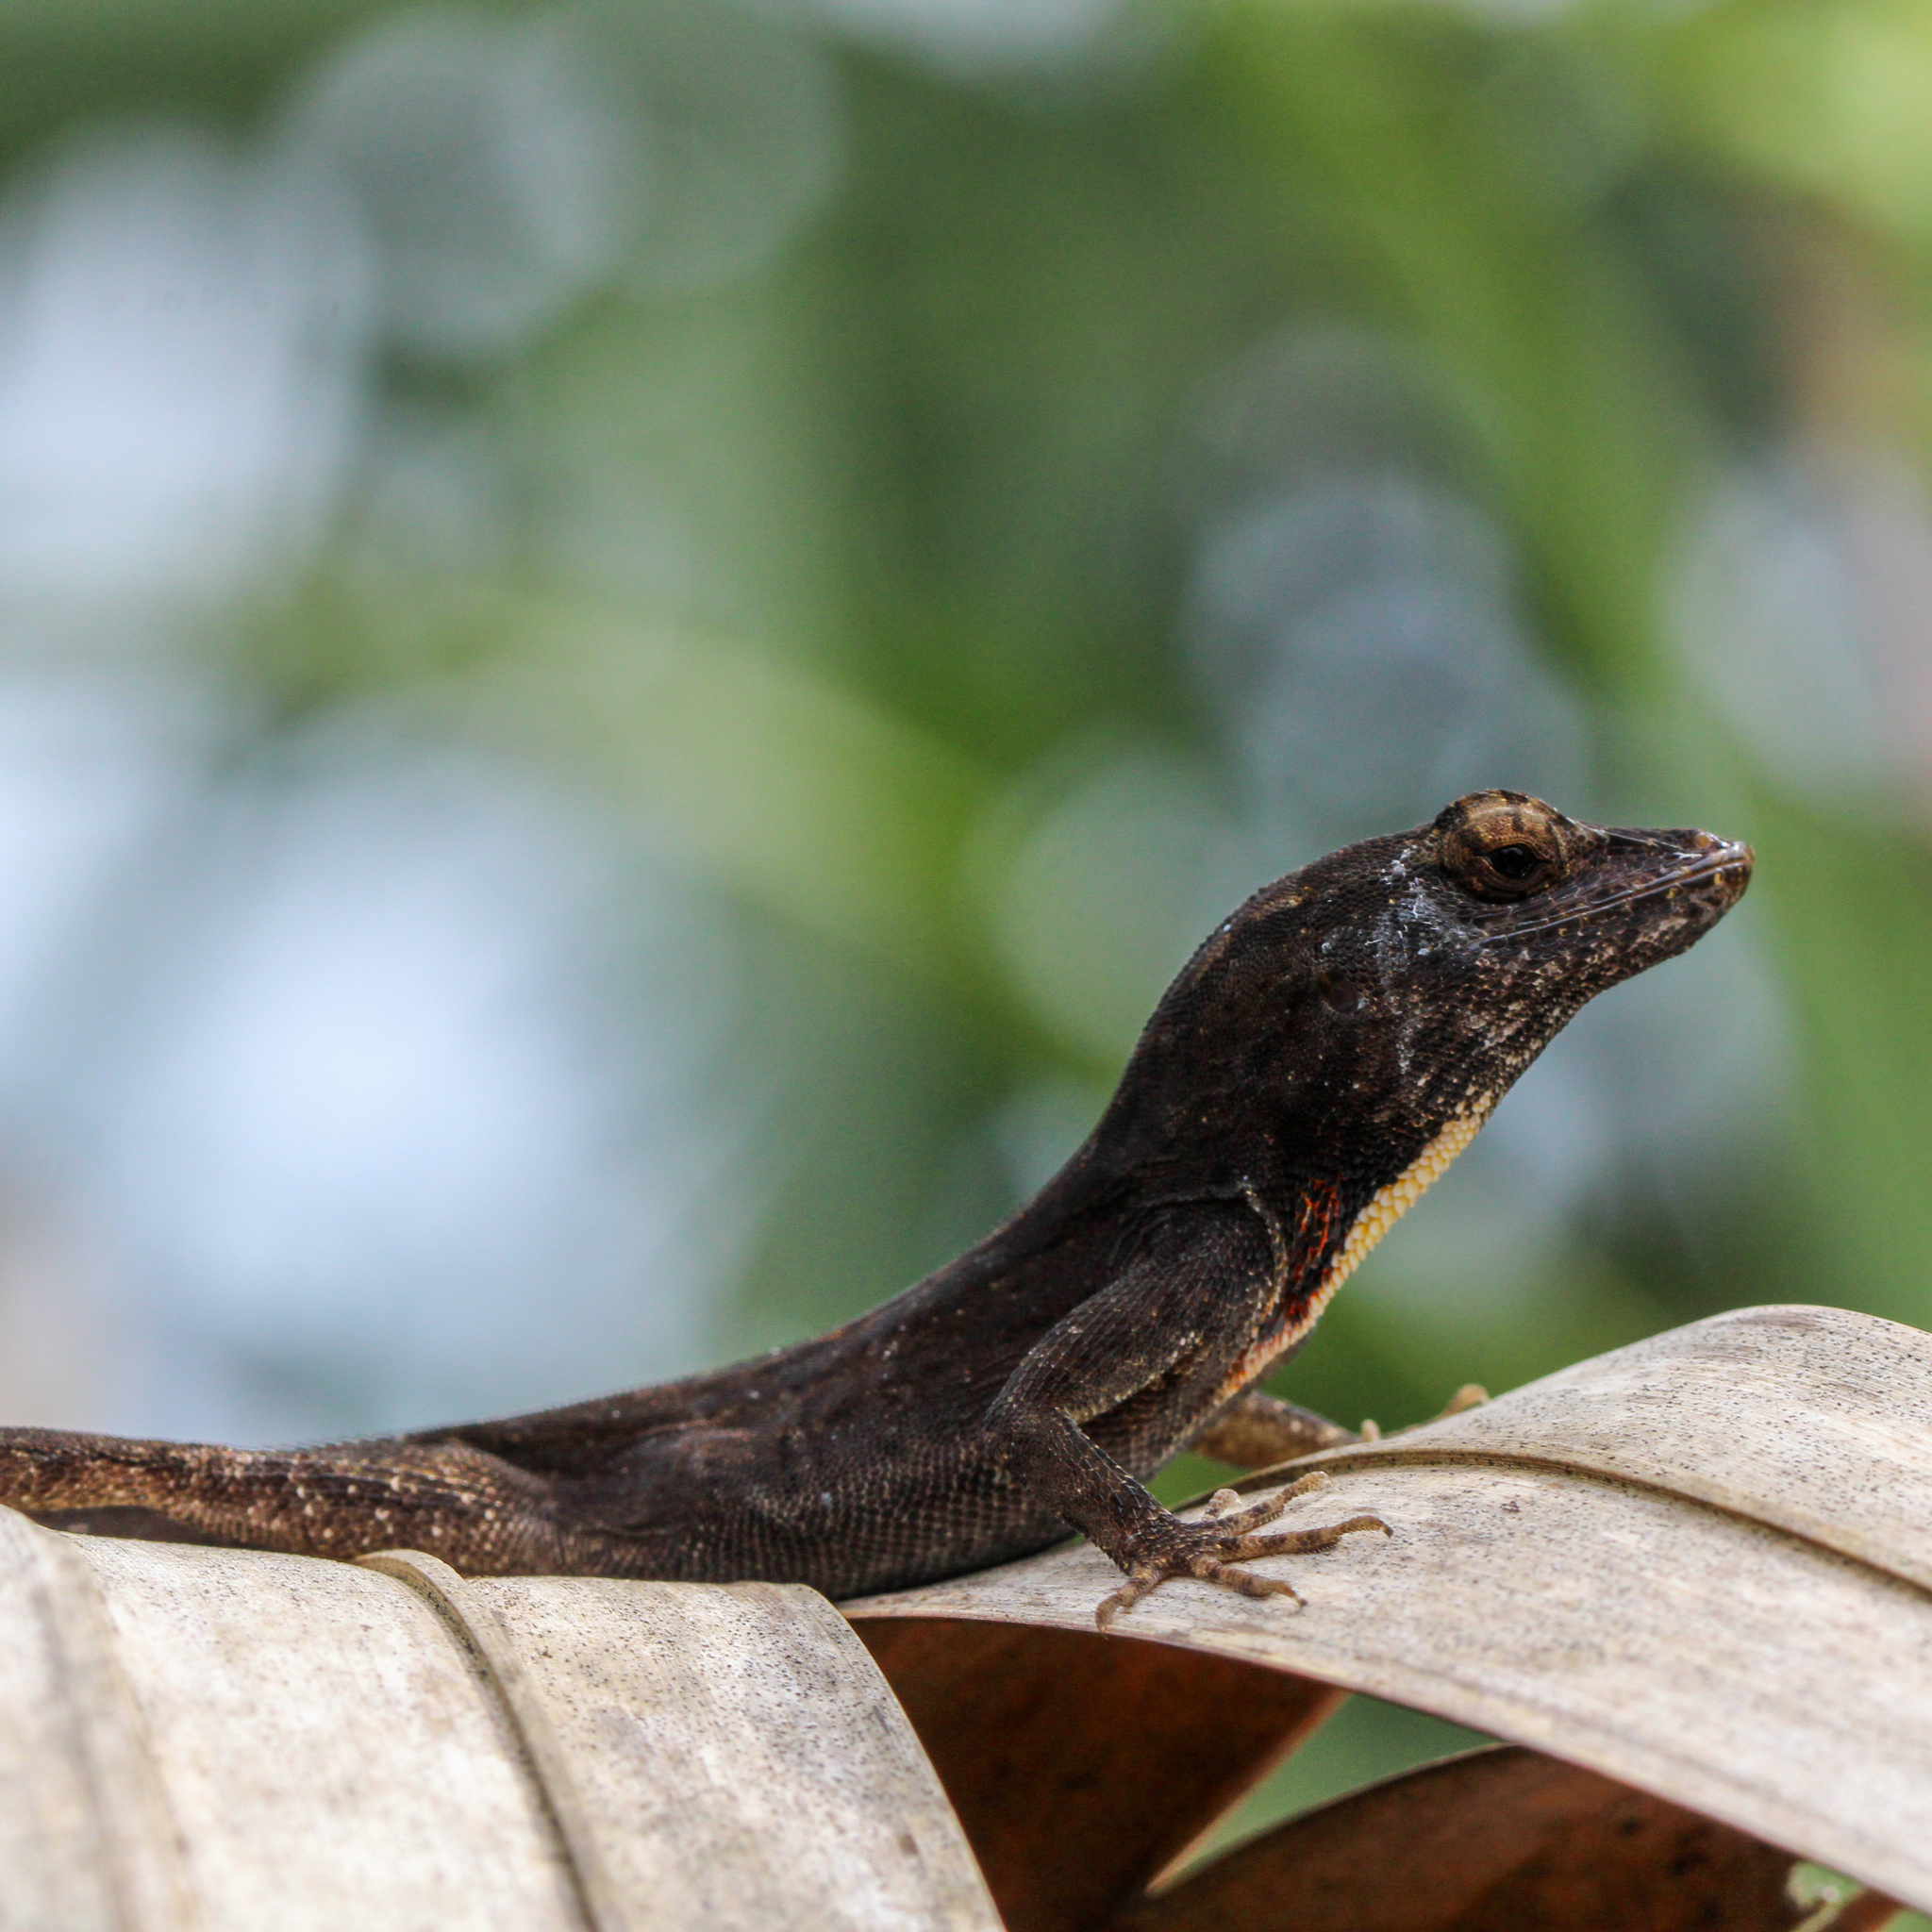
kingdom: Animalia
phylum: Chordata
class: Squamata
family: Dactyloidae
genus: Anolis
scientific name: Anolis sagrei
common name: Brown anole
